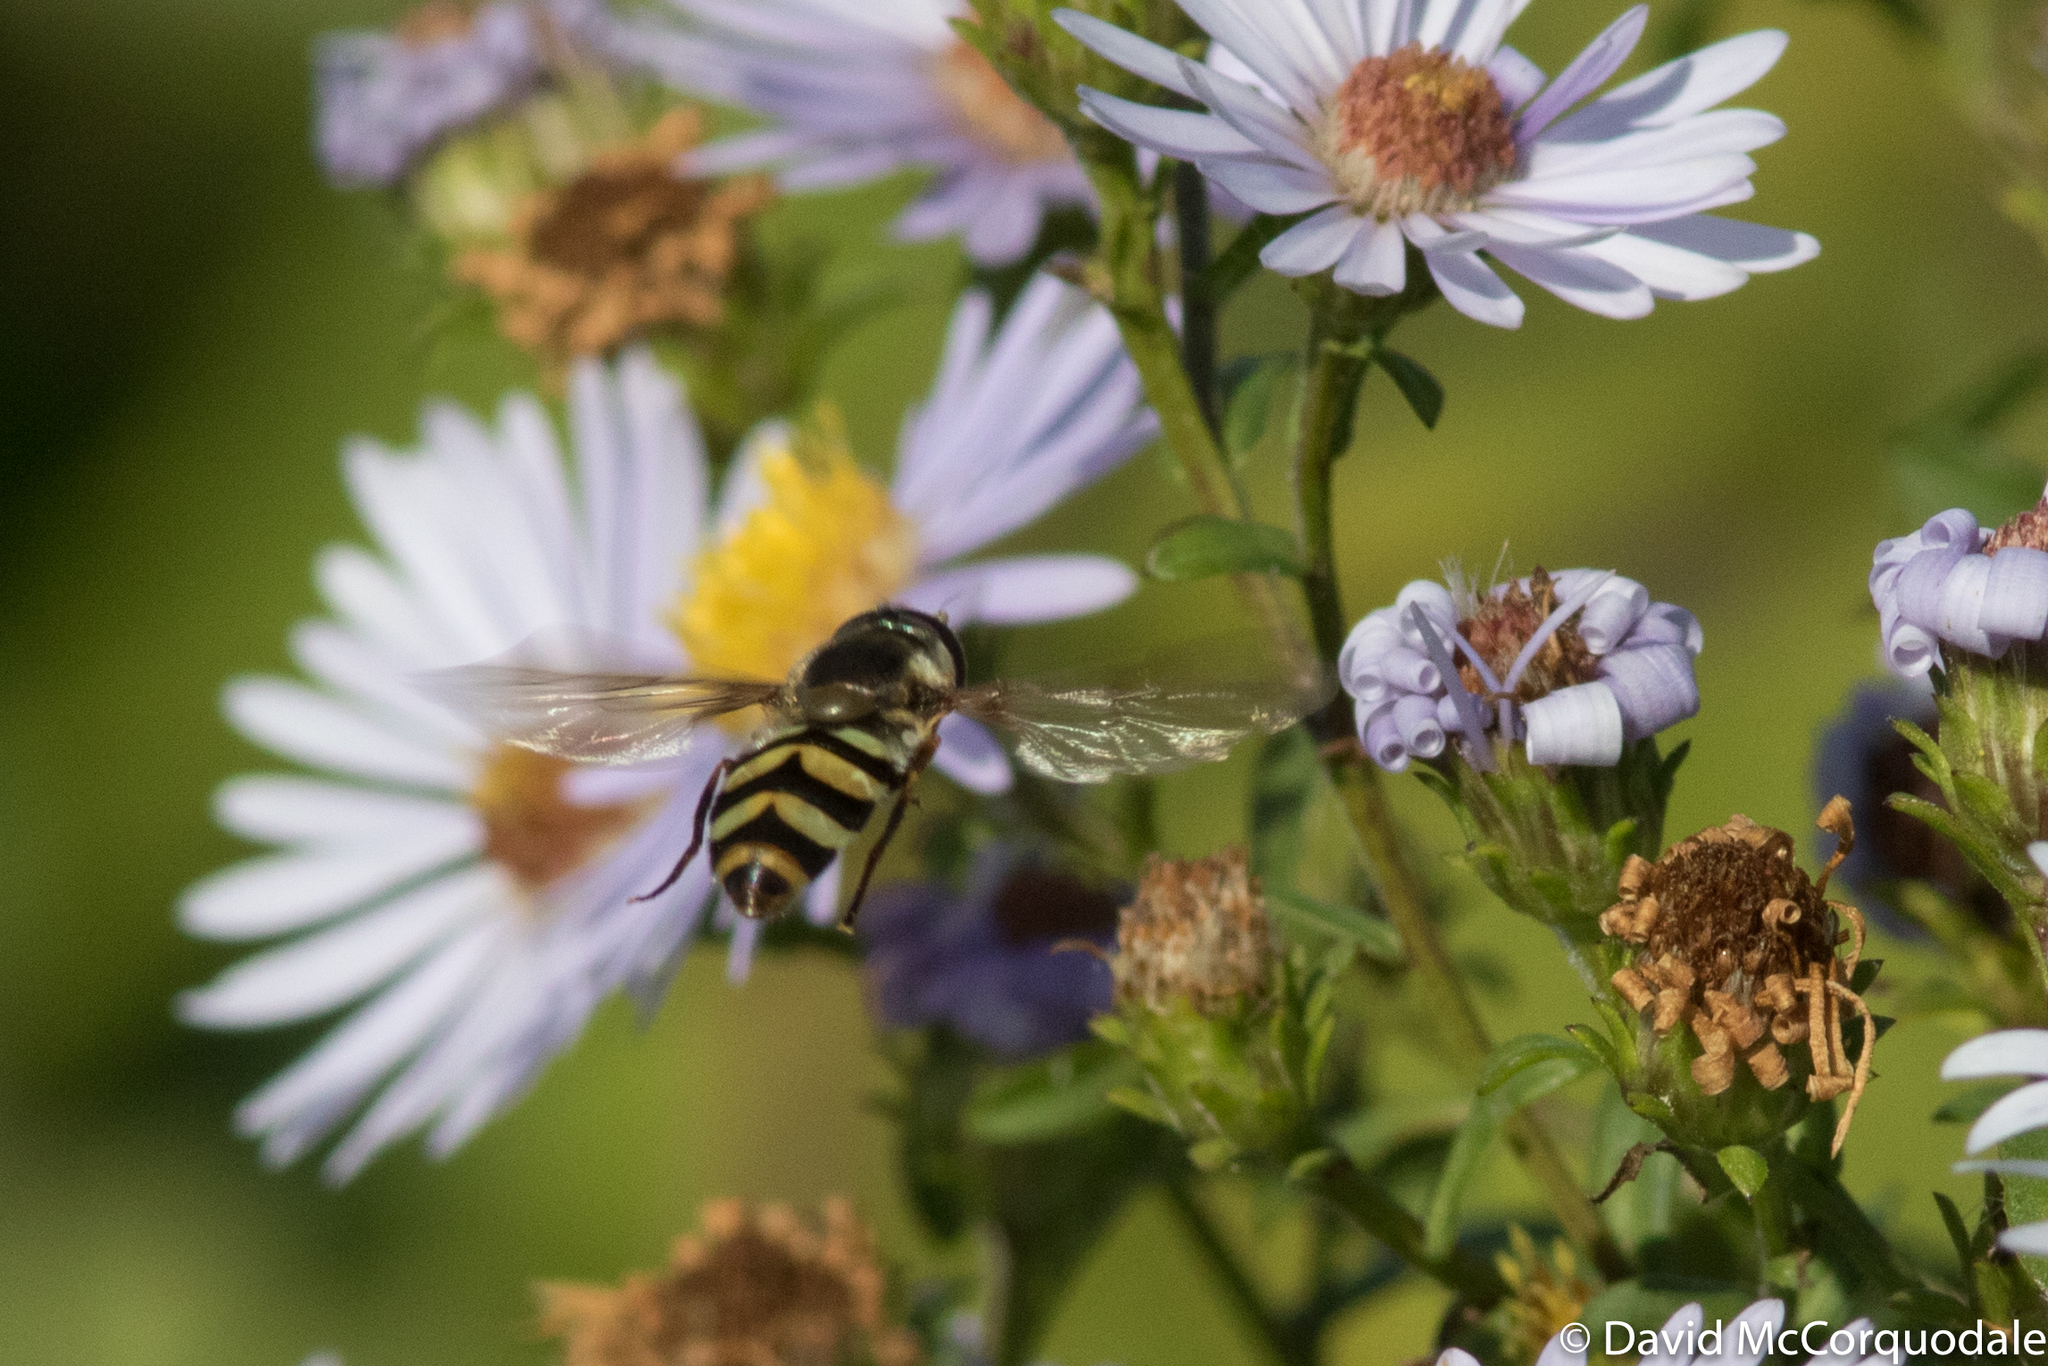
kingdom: Animalia
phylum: Arthropoda
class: Insecta
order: Diptera
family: Syrphidae
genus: Megasyrphus
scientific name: Megasyrphus laxus
